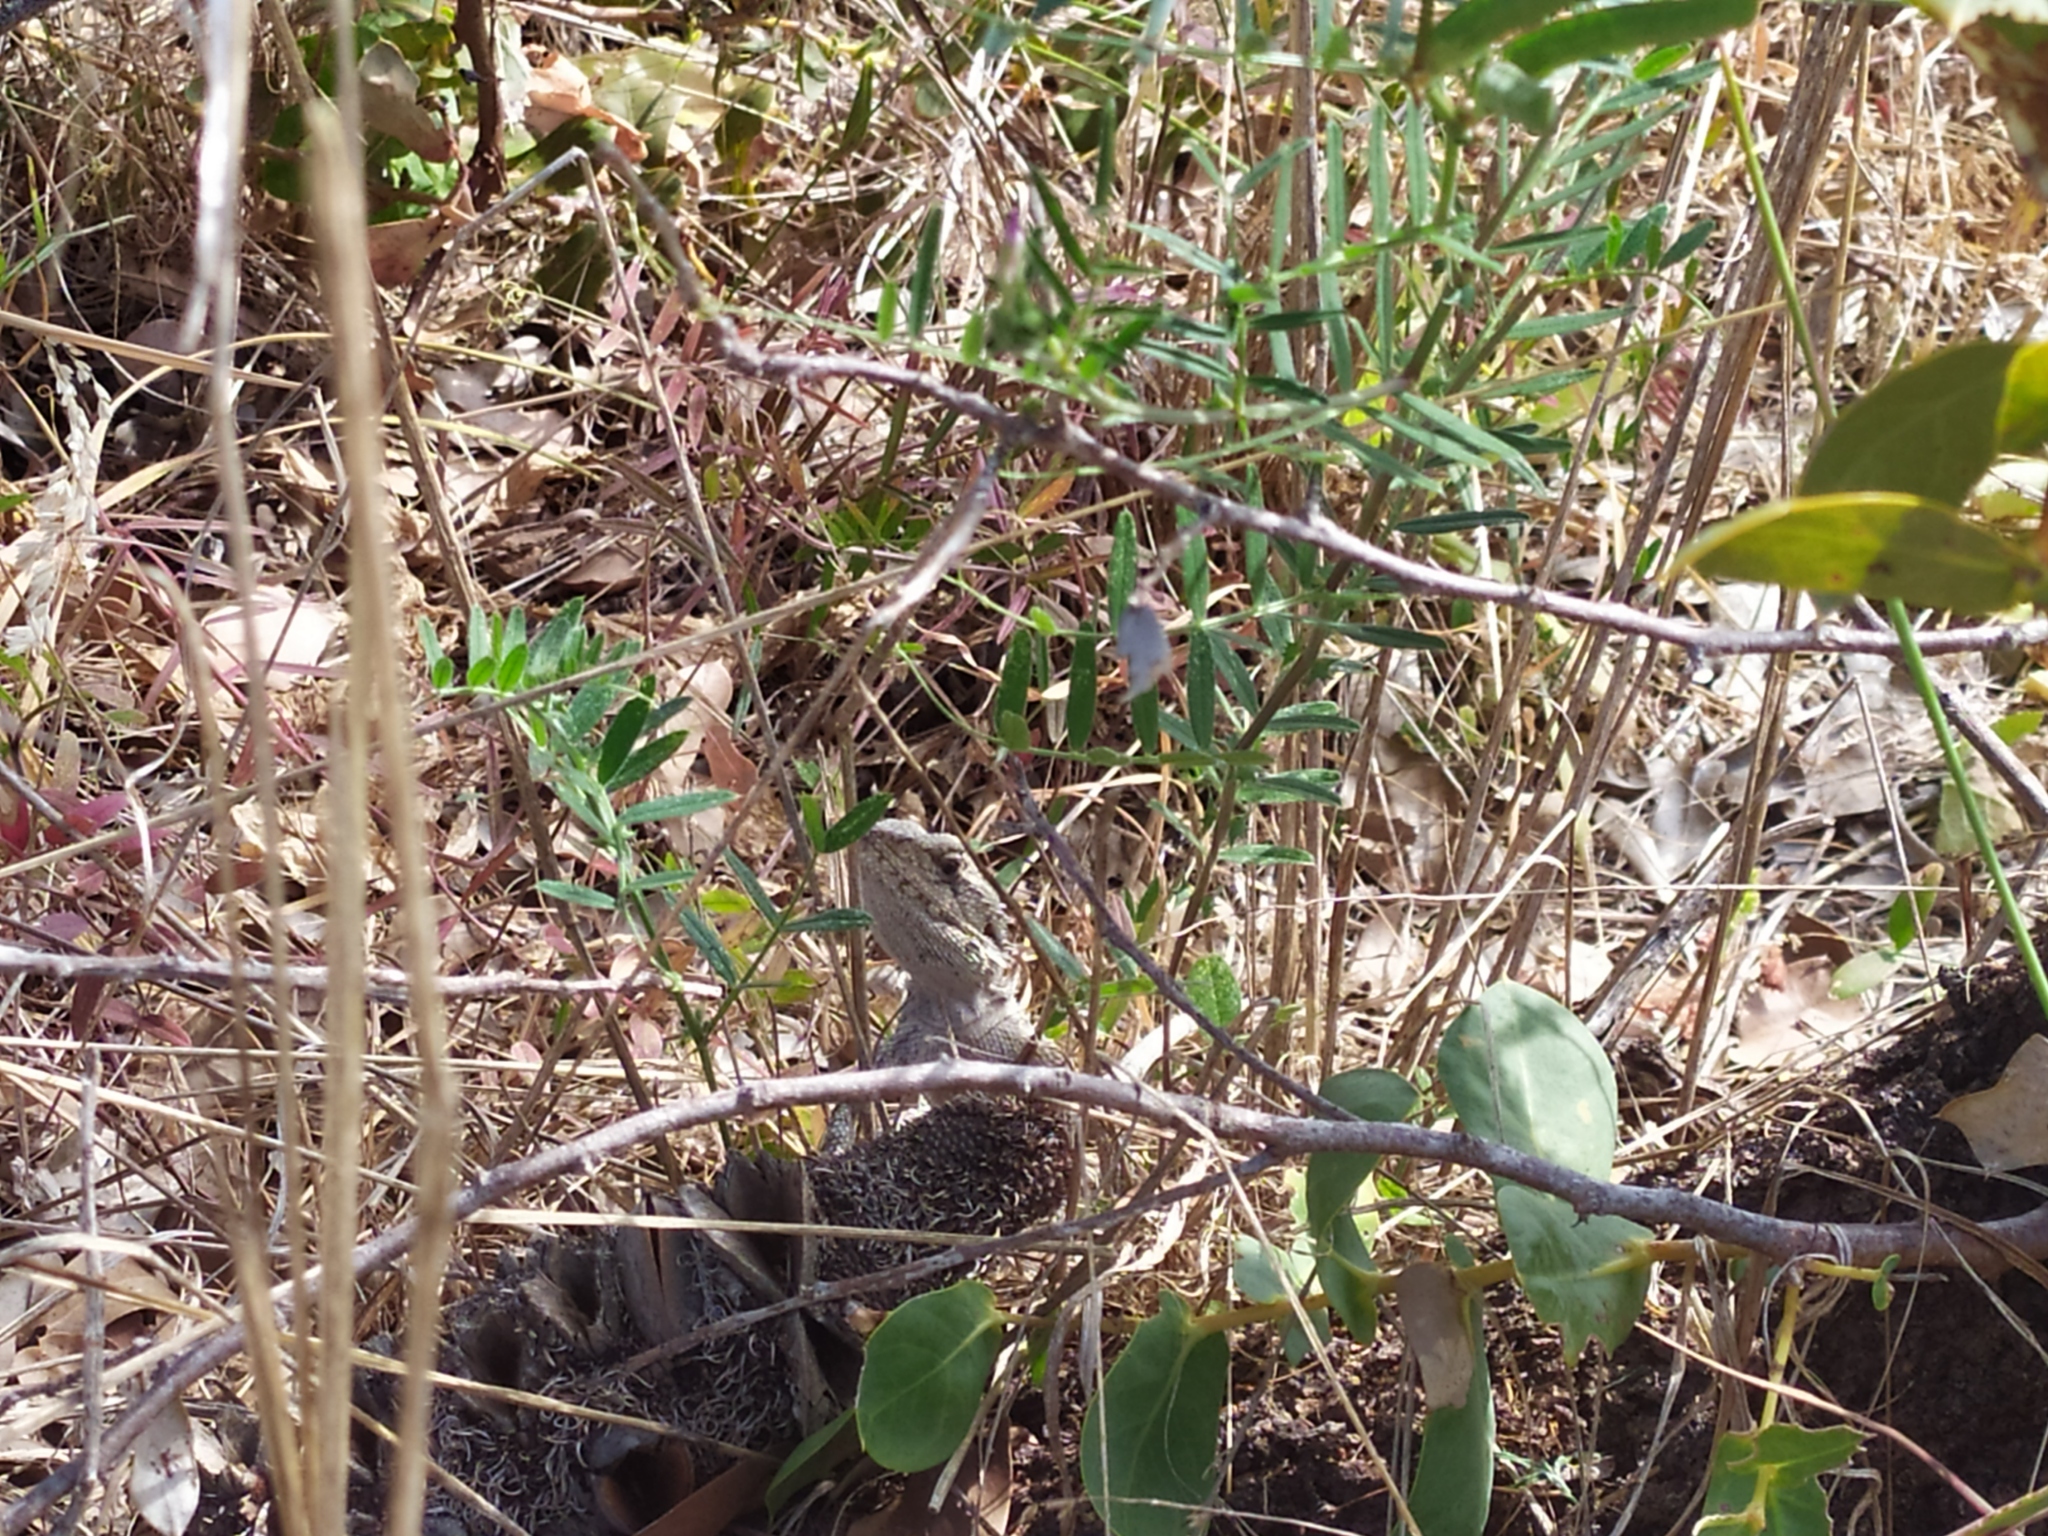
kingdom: Animalia
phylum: Chordata
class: Squamata
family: Agamidae
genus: Pogona
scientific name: Pogona minor
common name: Dwarf bearded dragon
